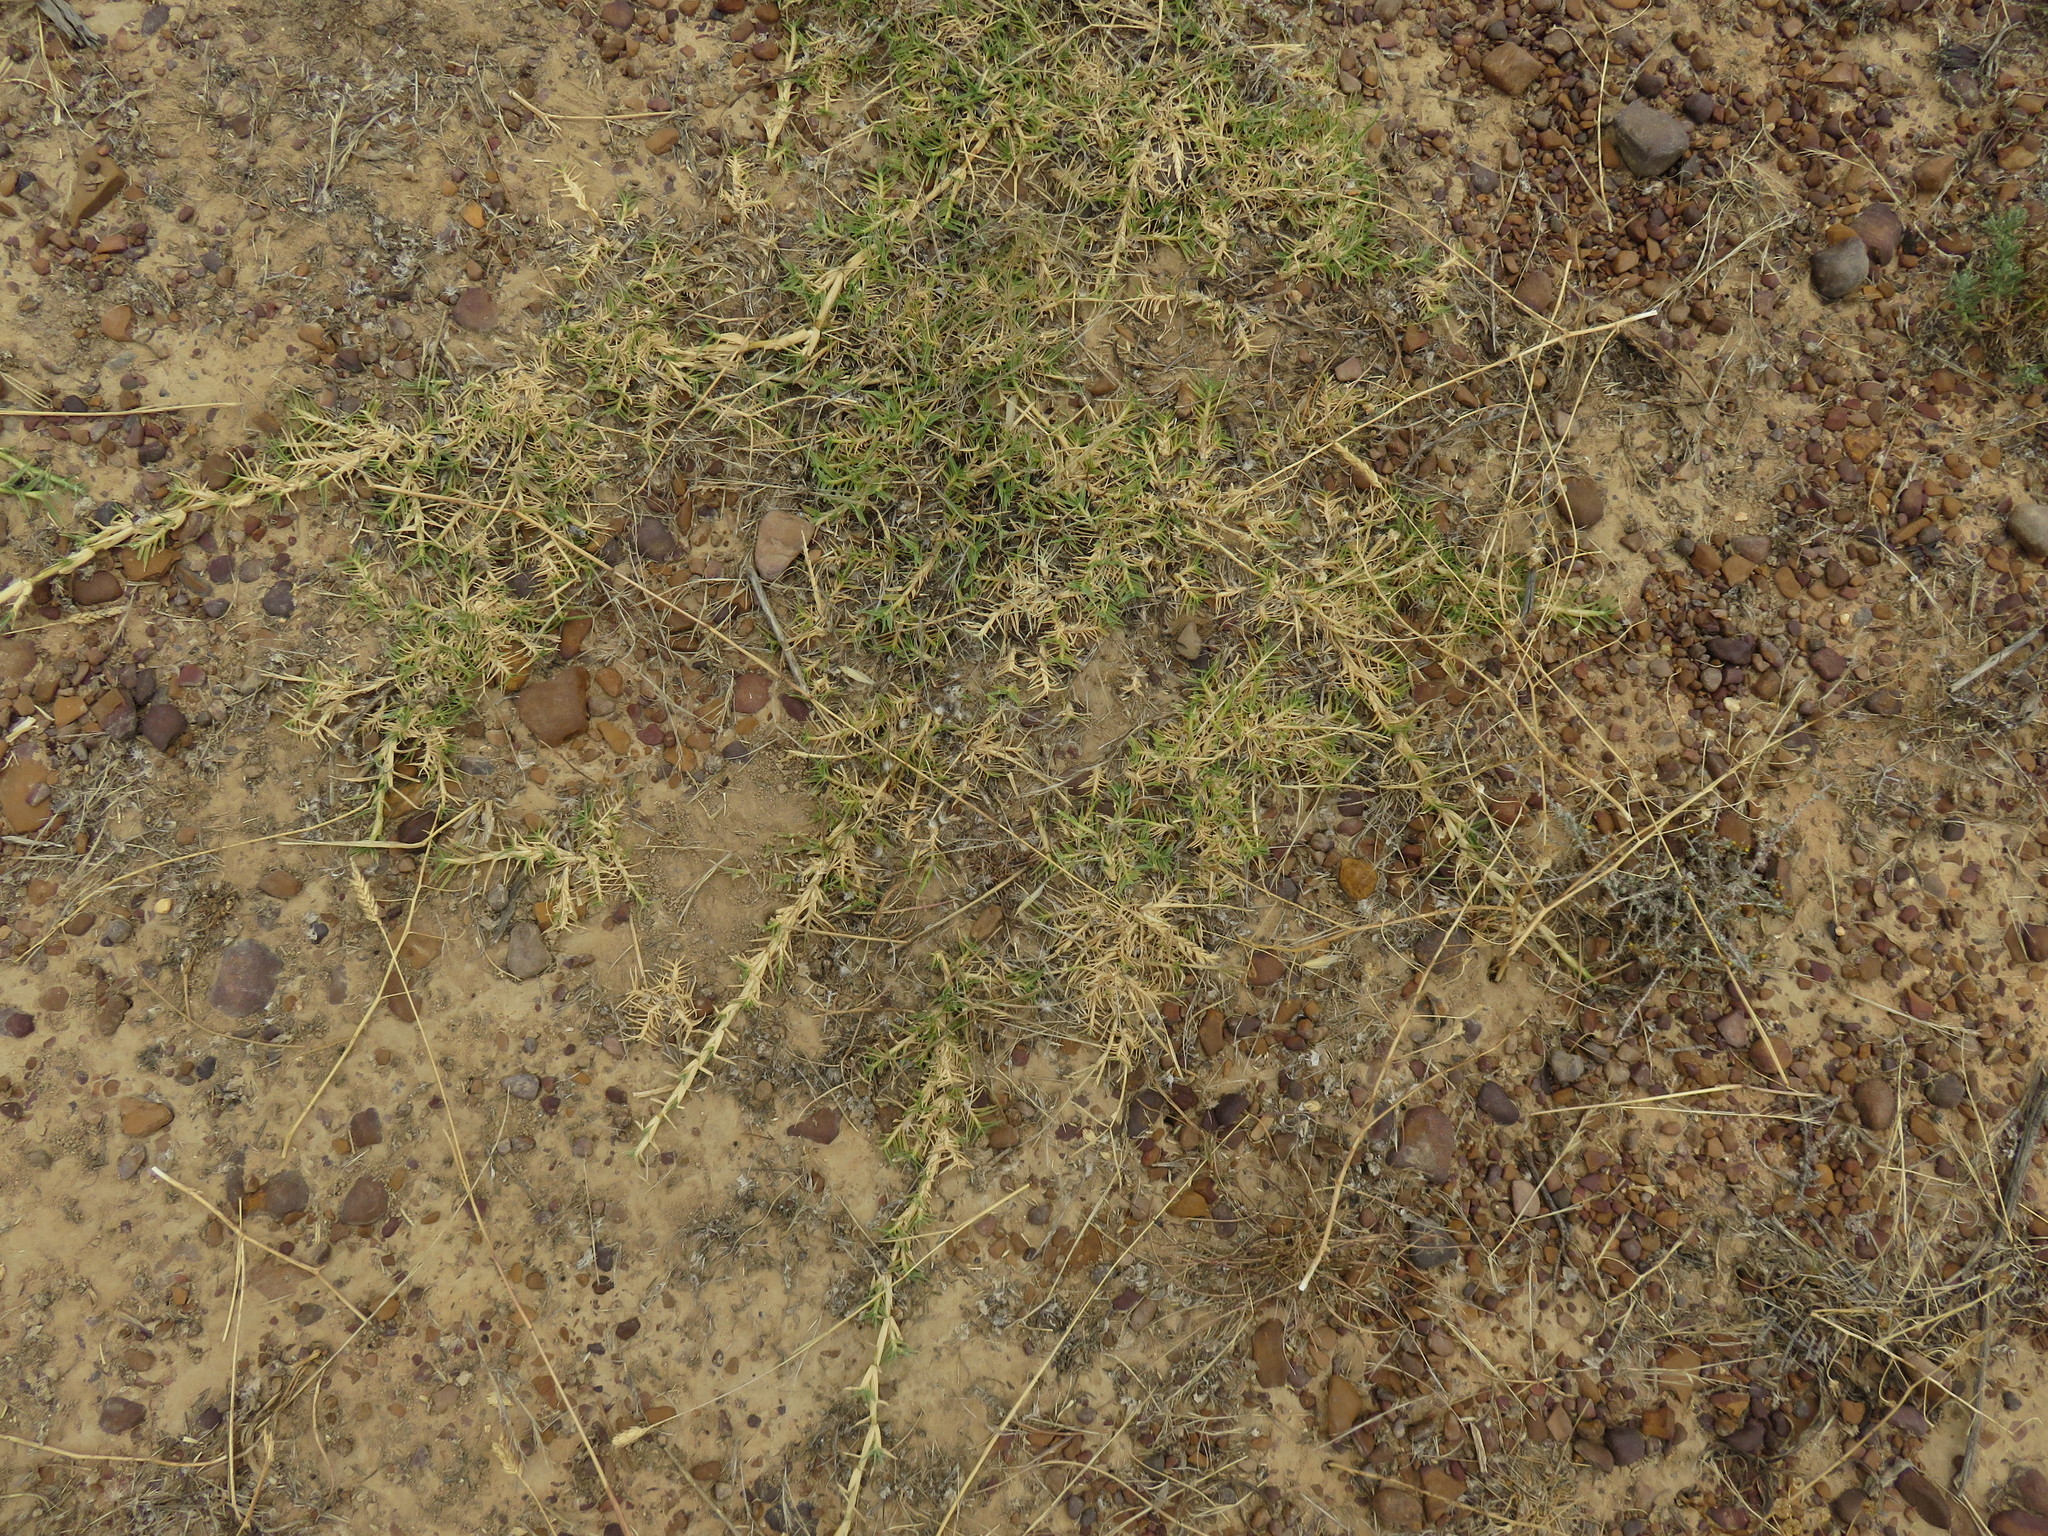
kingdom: Plantae
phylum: Tracheophyta
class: Liliopsida
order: Poales
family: Poaceae
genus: Cynodon
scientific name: Cynodon dactylon
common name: Bermuda grass
